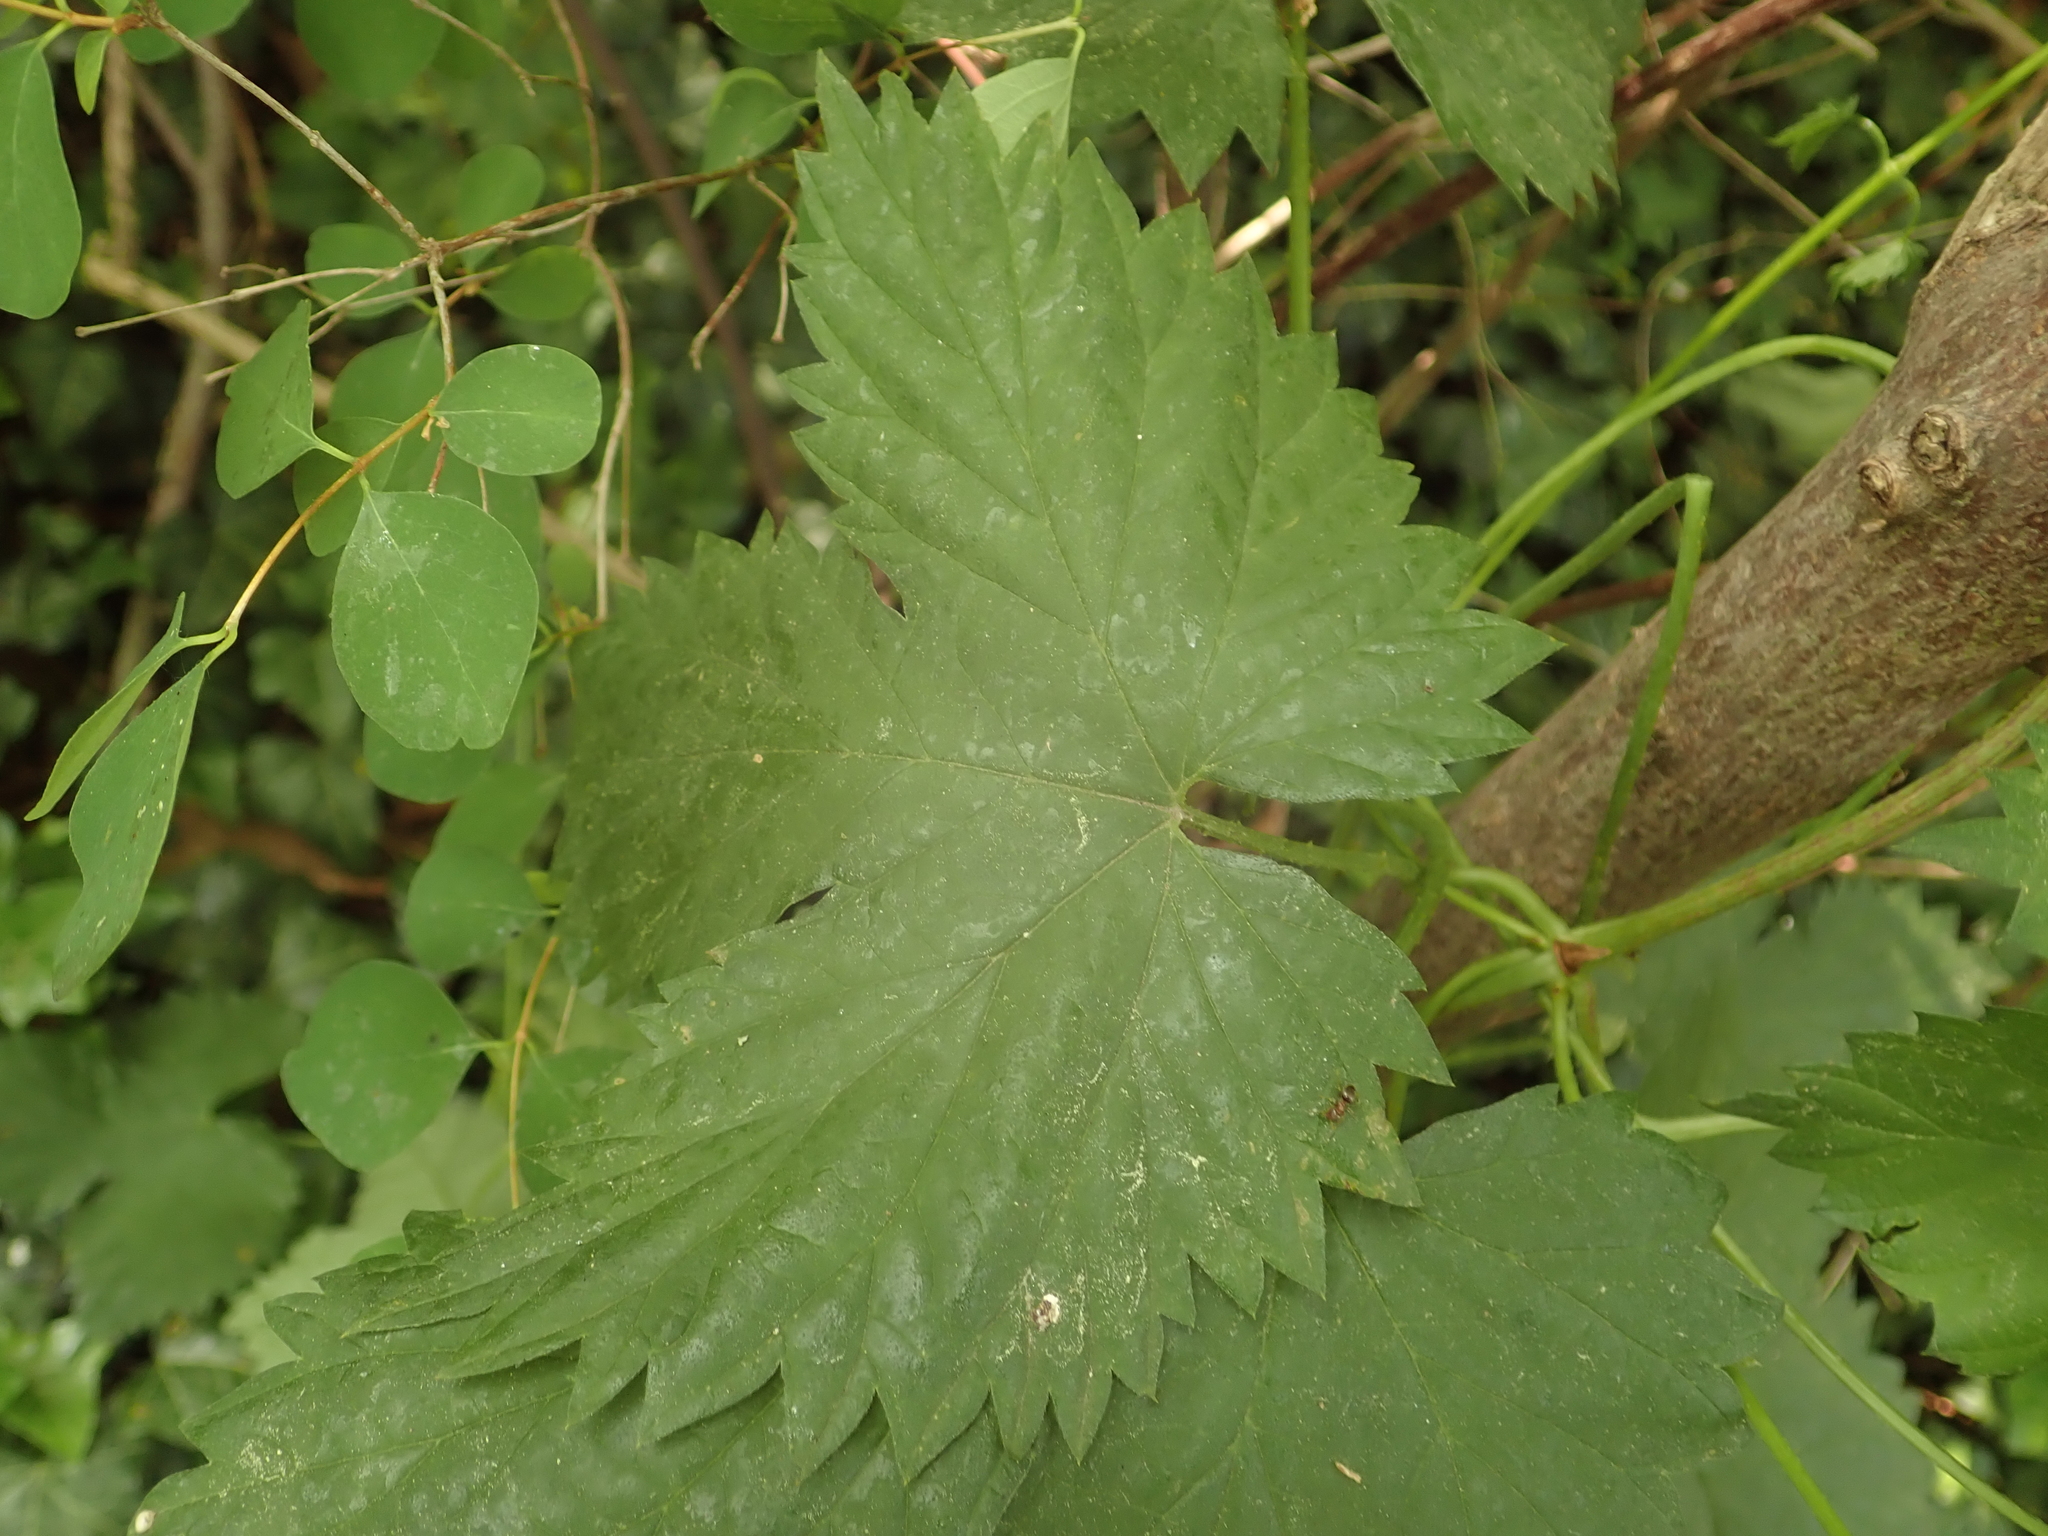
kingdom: Plantae
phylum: Tracheophyta
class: Magnoliopsida
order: Rosales
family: Cannabaceae
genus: Humulus
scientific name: Humulus lupulus
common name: Hop
